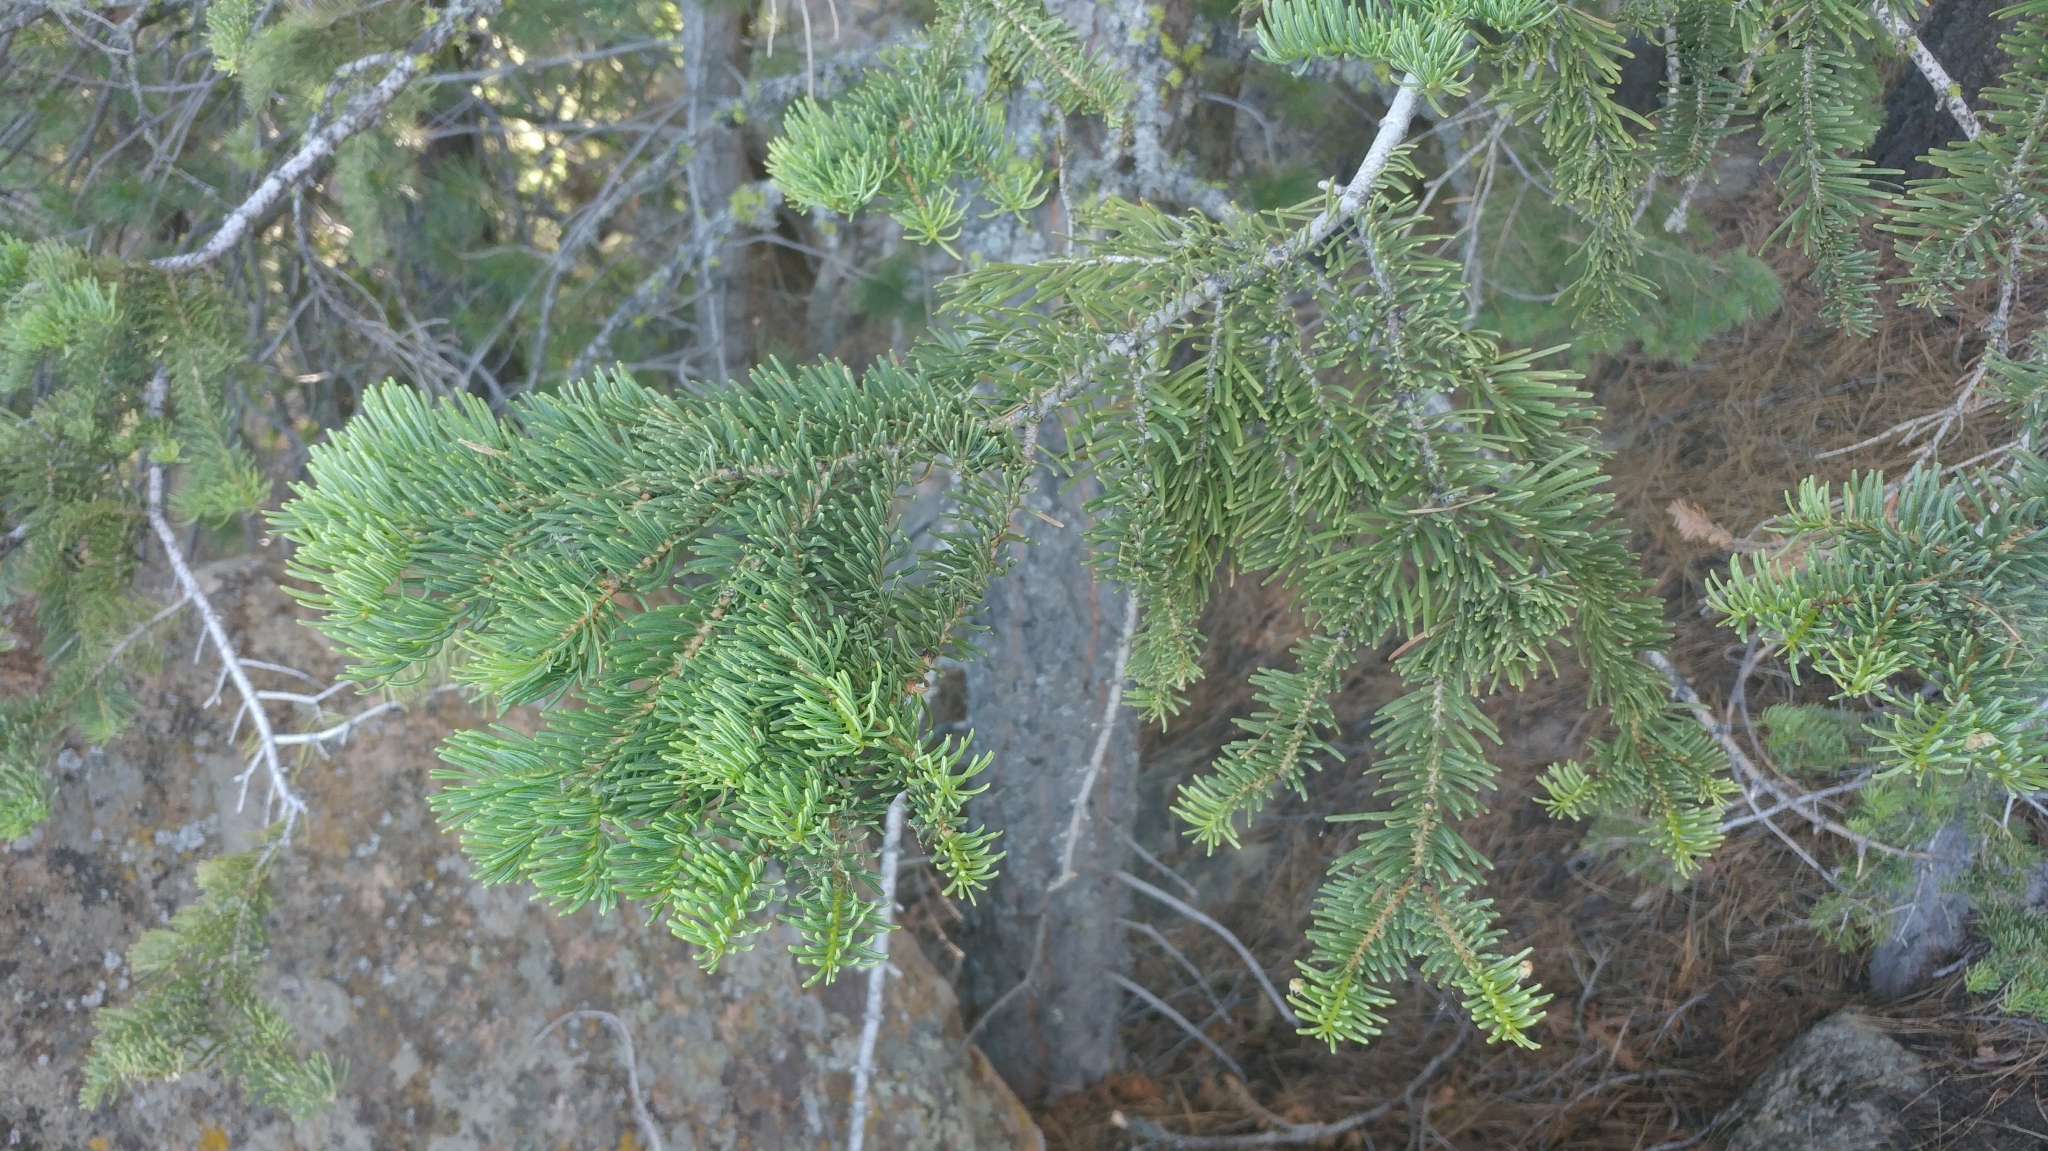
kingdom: Plantae
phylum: Tracheophyta
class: Pinopsida
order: Pinales
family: Pinaceae
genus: Abies
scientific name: Abies concolor
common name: Colorado fir
